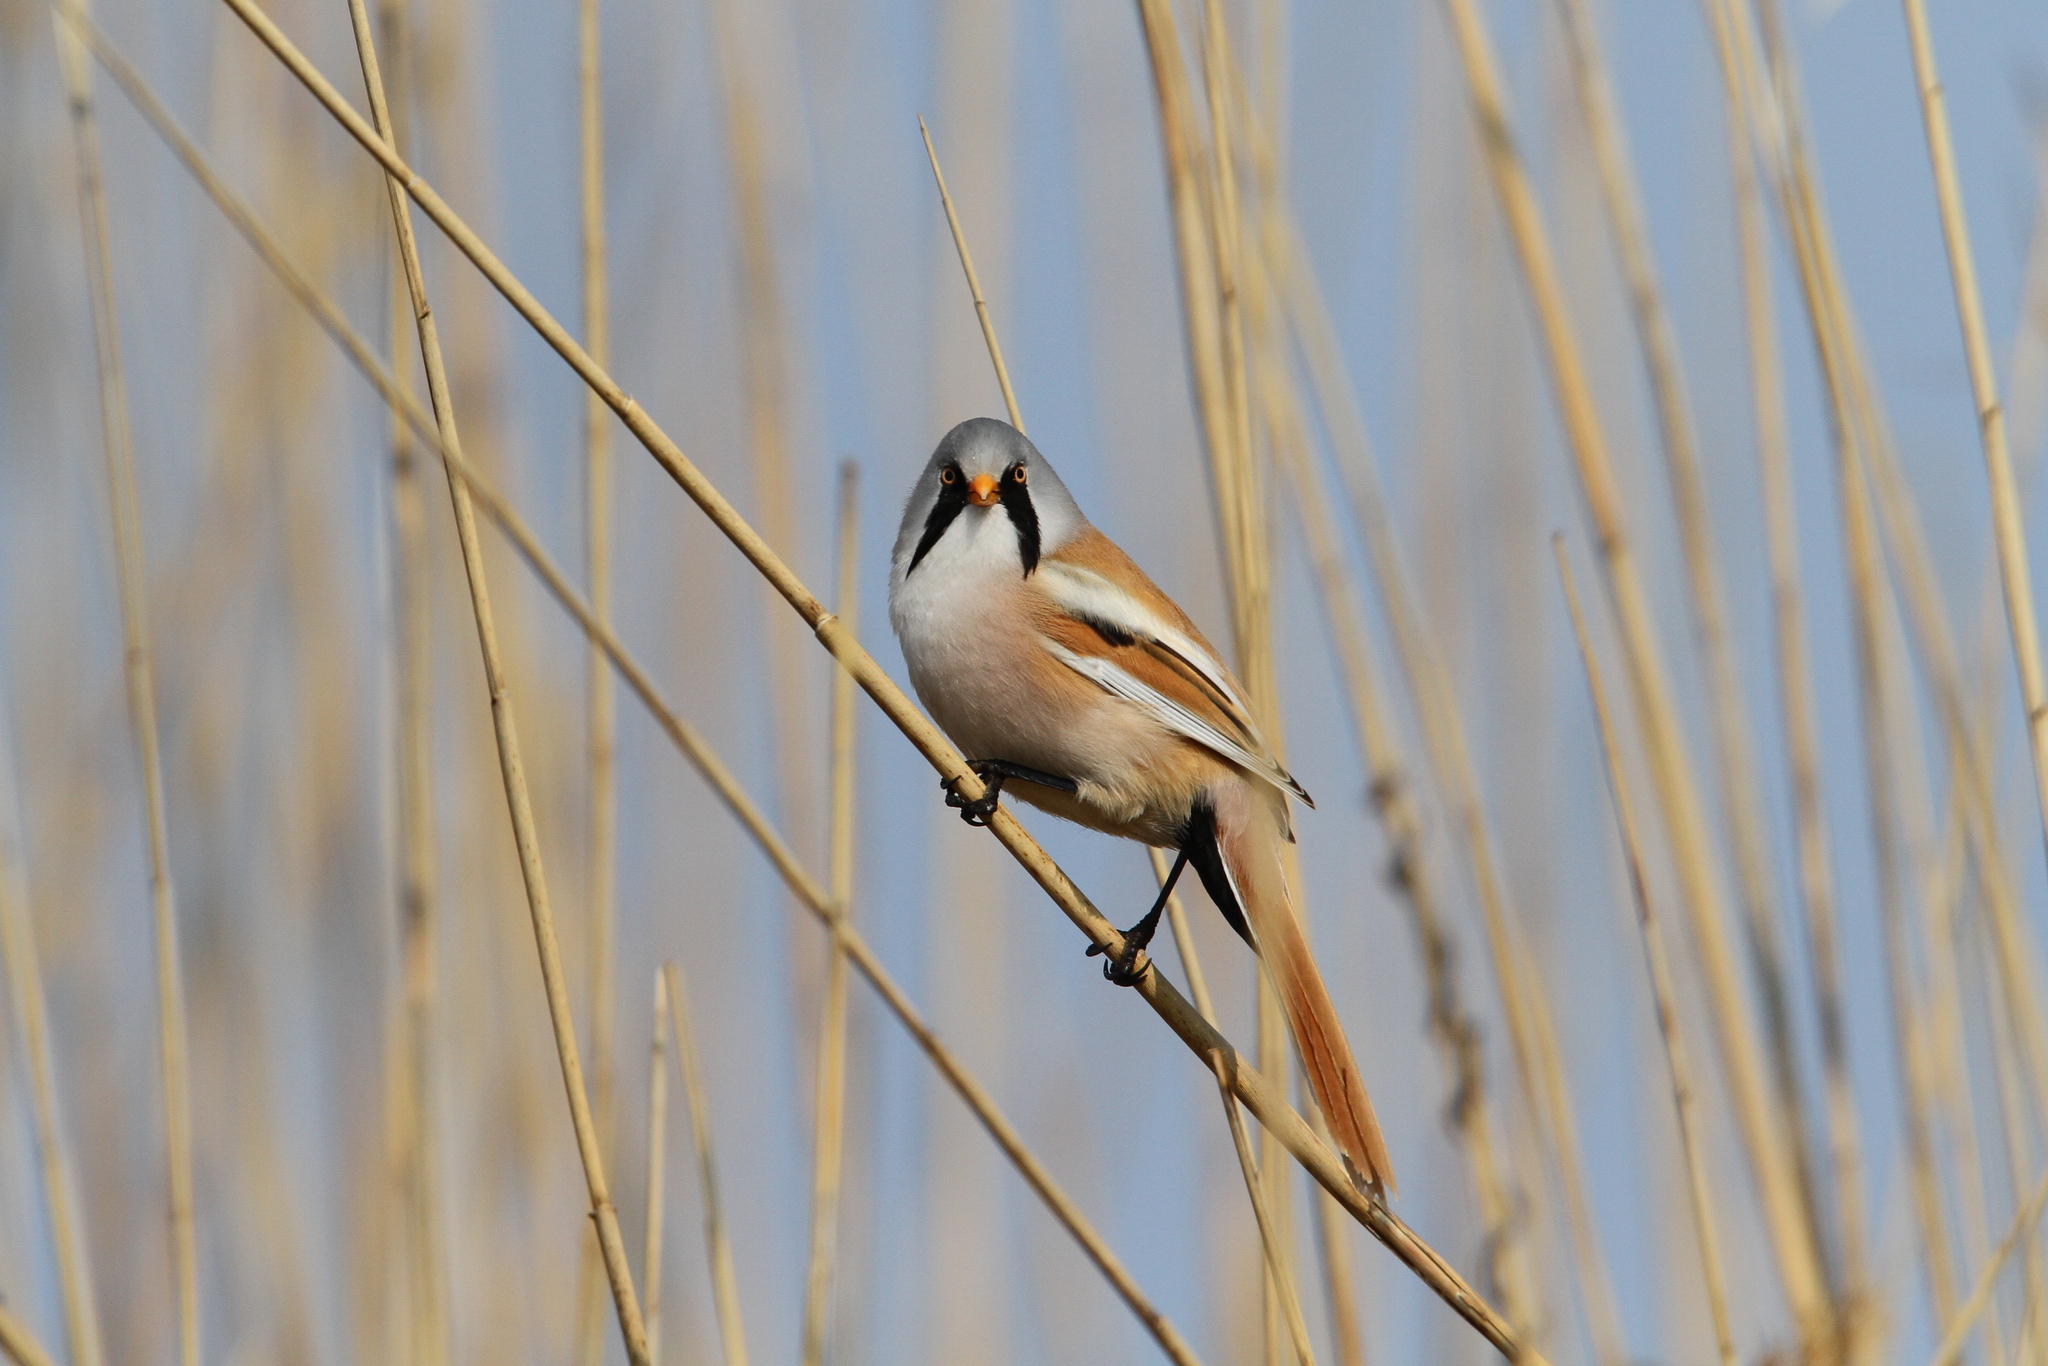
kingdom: Animalia
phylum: Chordata
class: Aves
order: Passeriformes
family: Panuridae
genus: Panurus
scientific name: Panurus biarmicus
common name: Bearded reedling
